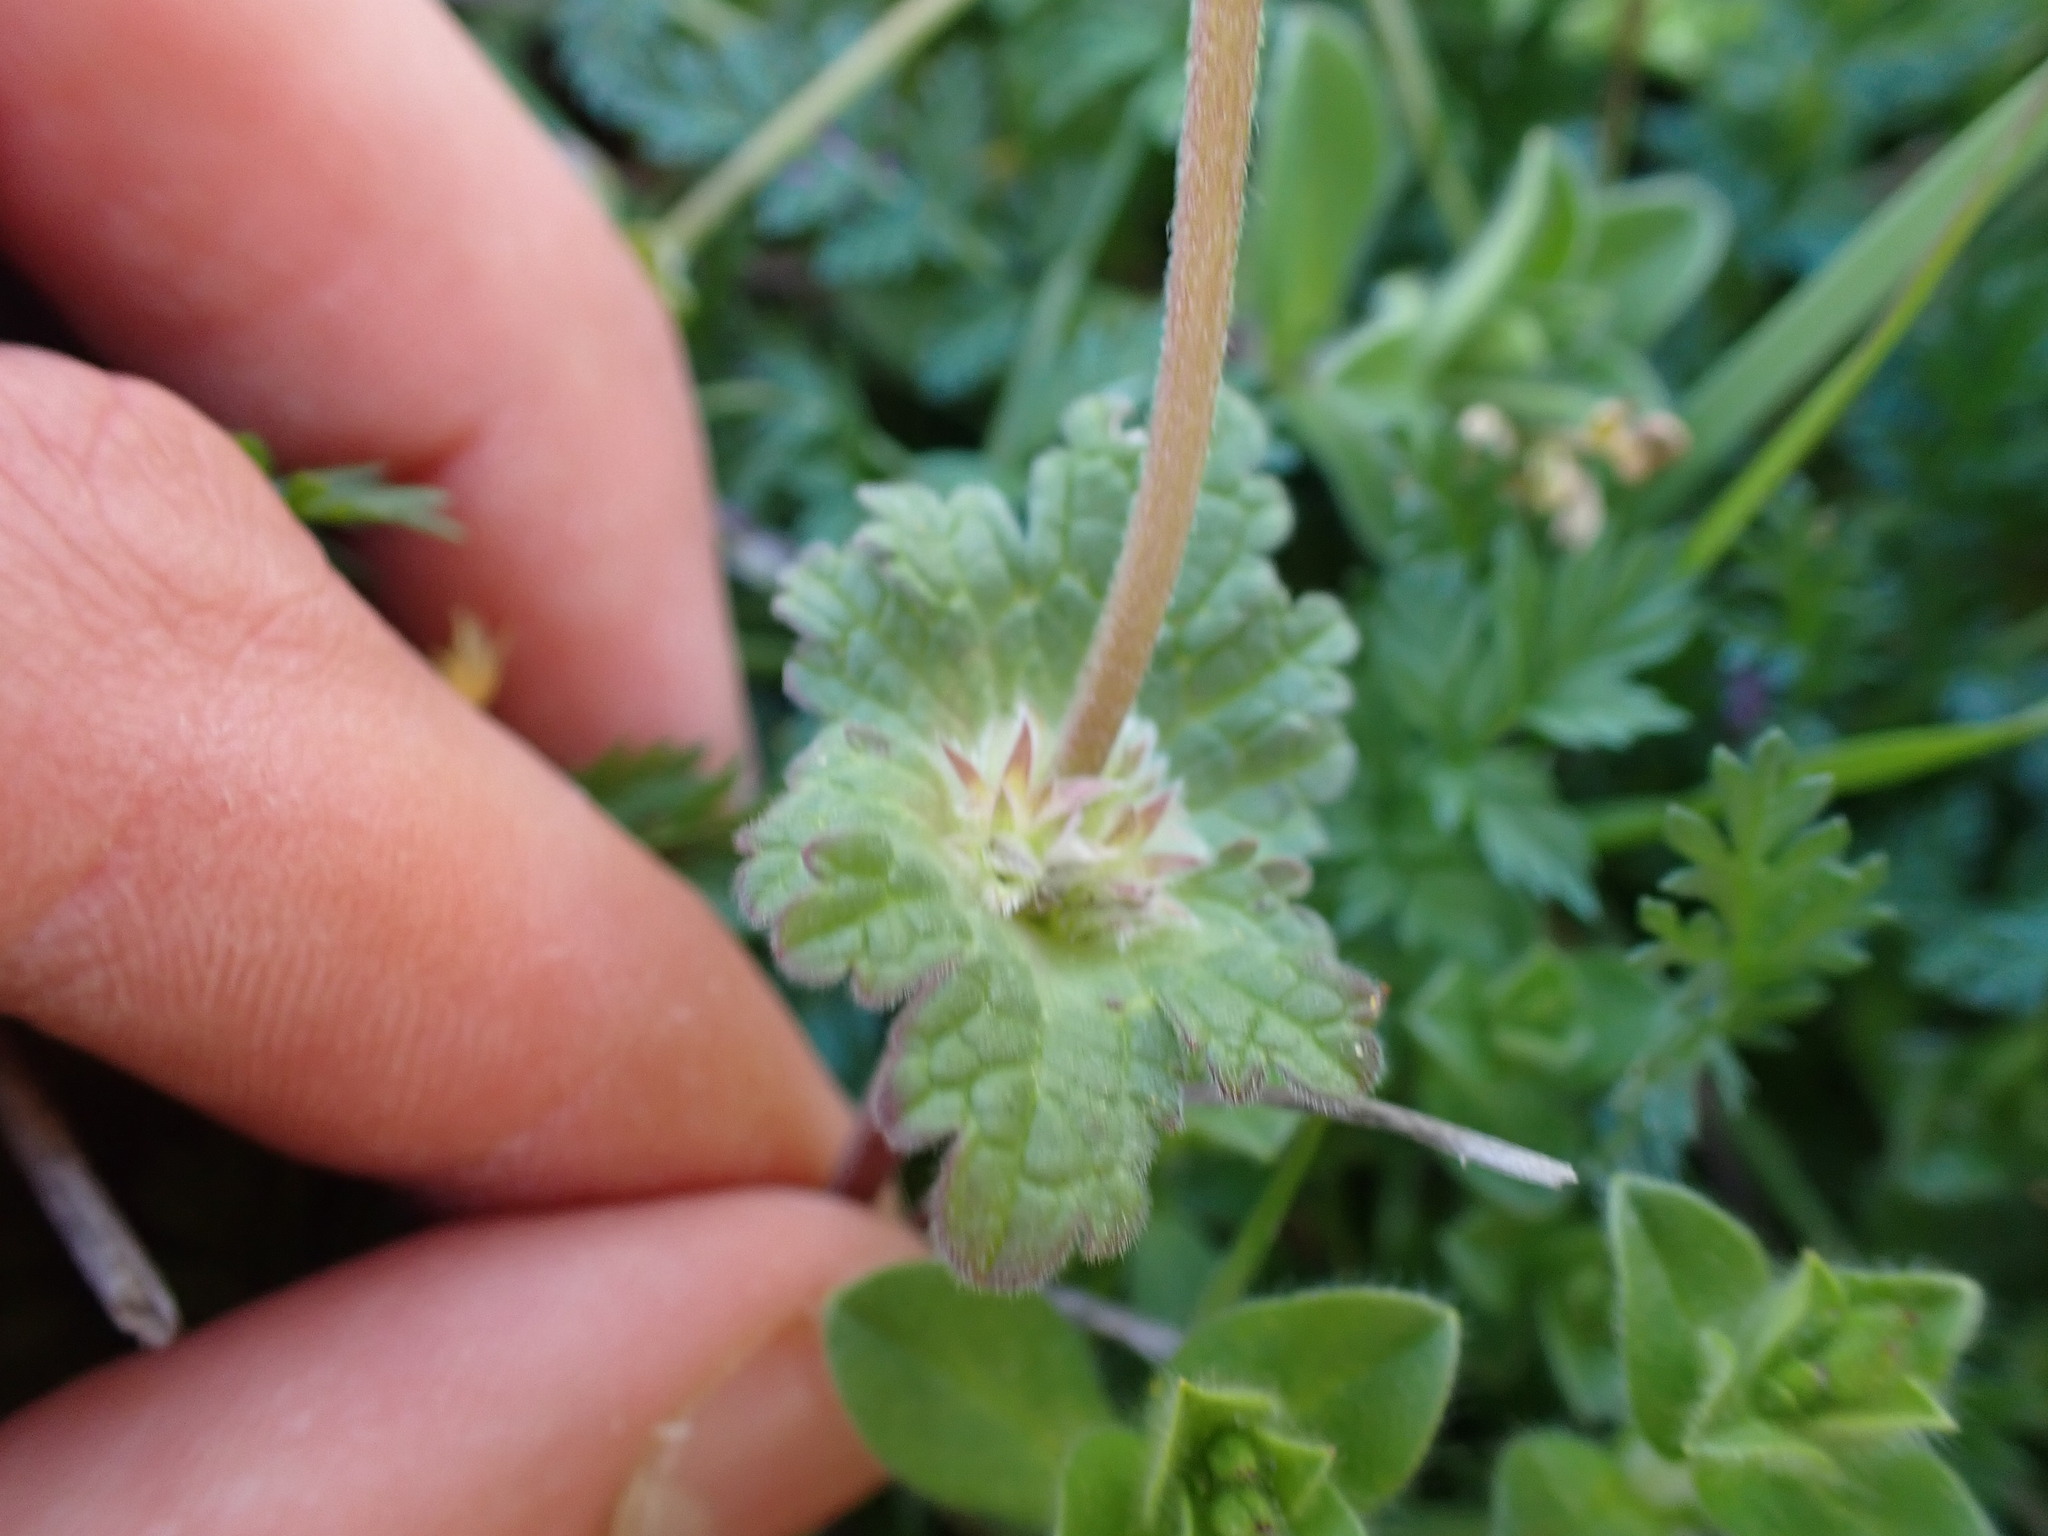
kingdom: Plantae
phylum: Tracheophyta
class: Magnoliopsida
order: Lamiales
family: Lamiaceae
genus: Lamium
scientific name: Lamium amplexicaule
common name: Henbit dead-nettle
